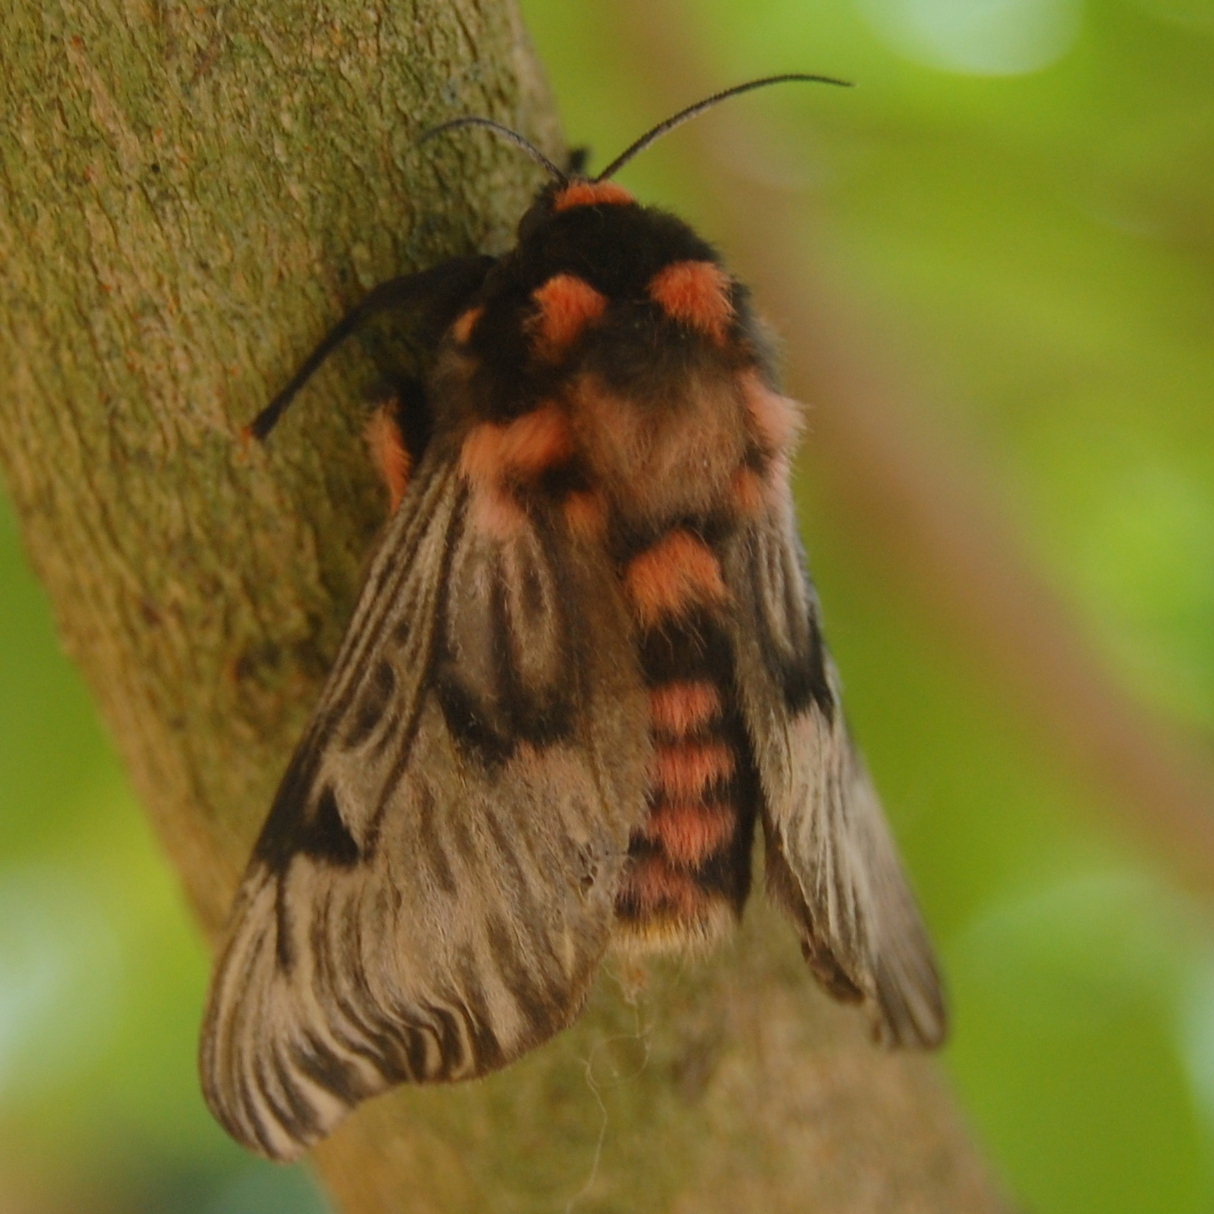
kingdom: Animalia
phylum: Arthropoda
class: Insecta
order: Lepidoptera
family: Megalopygidae
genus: Megalopyge
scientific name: Megalopyge urens
